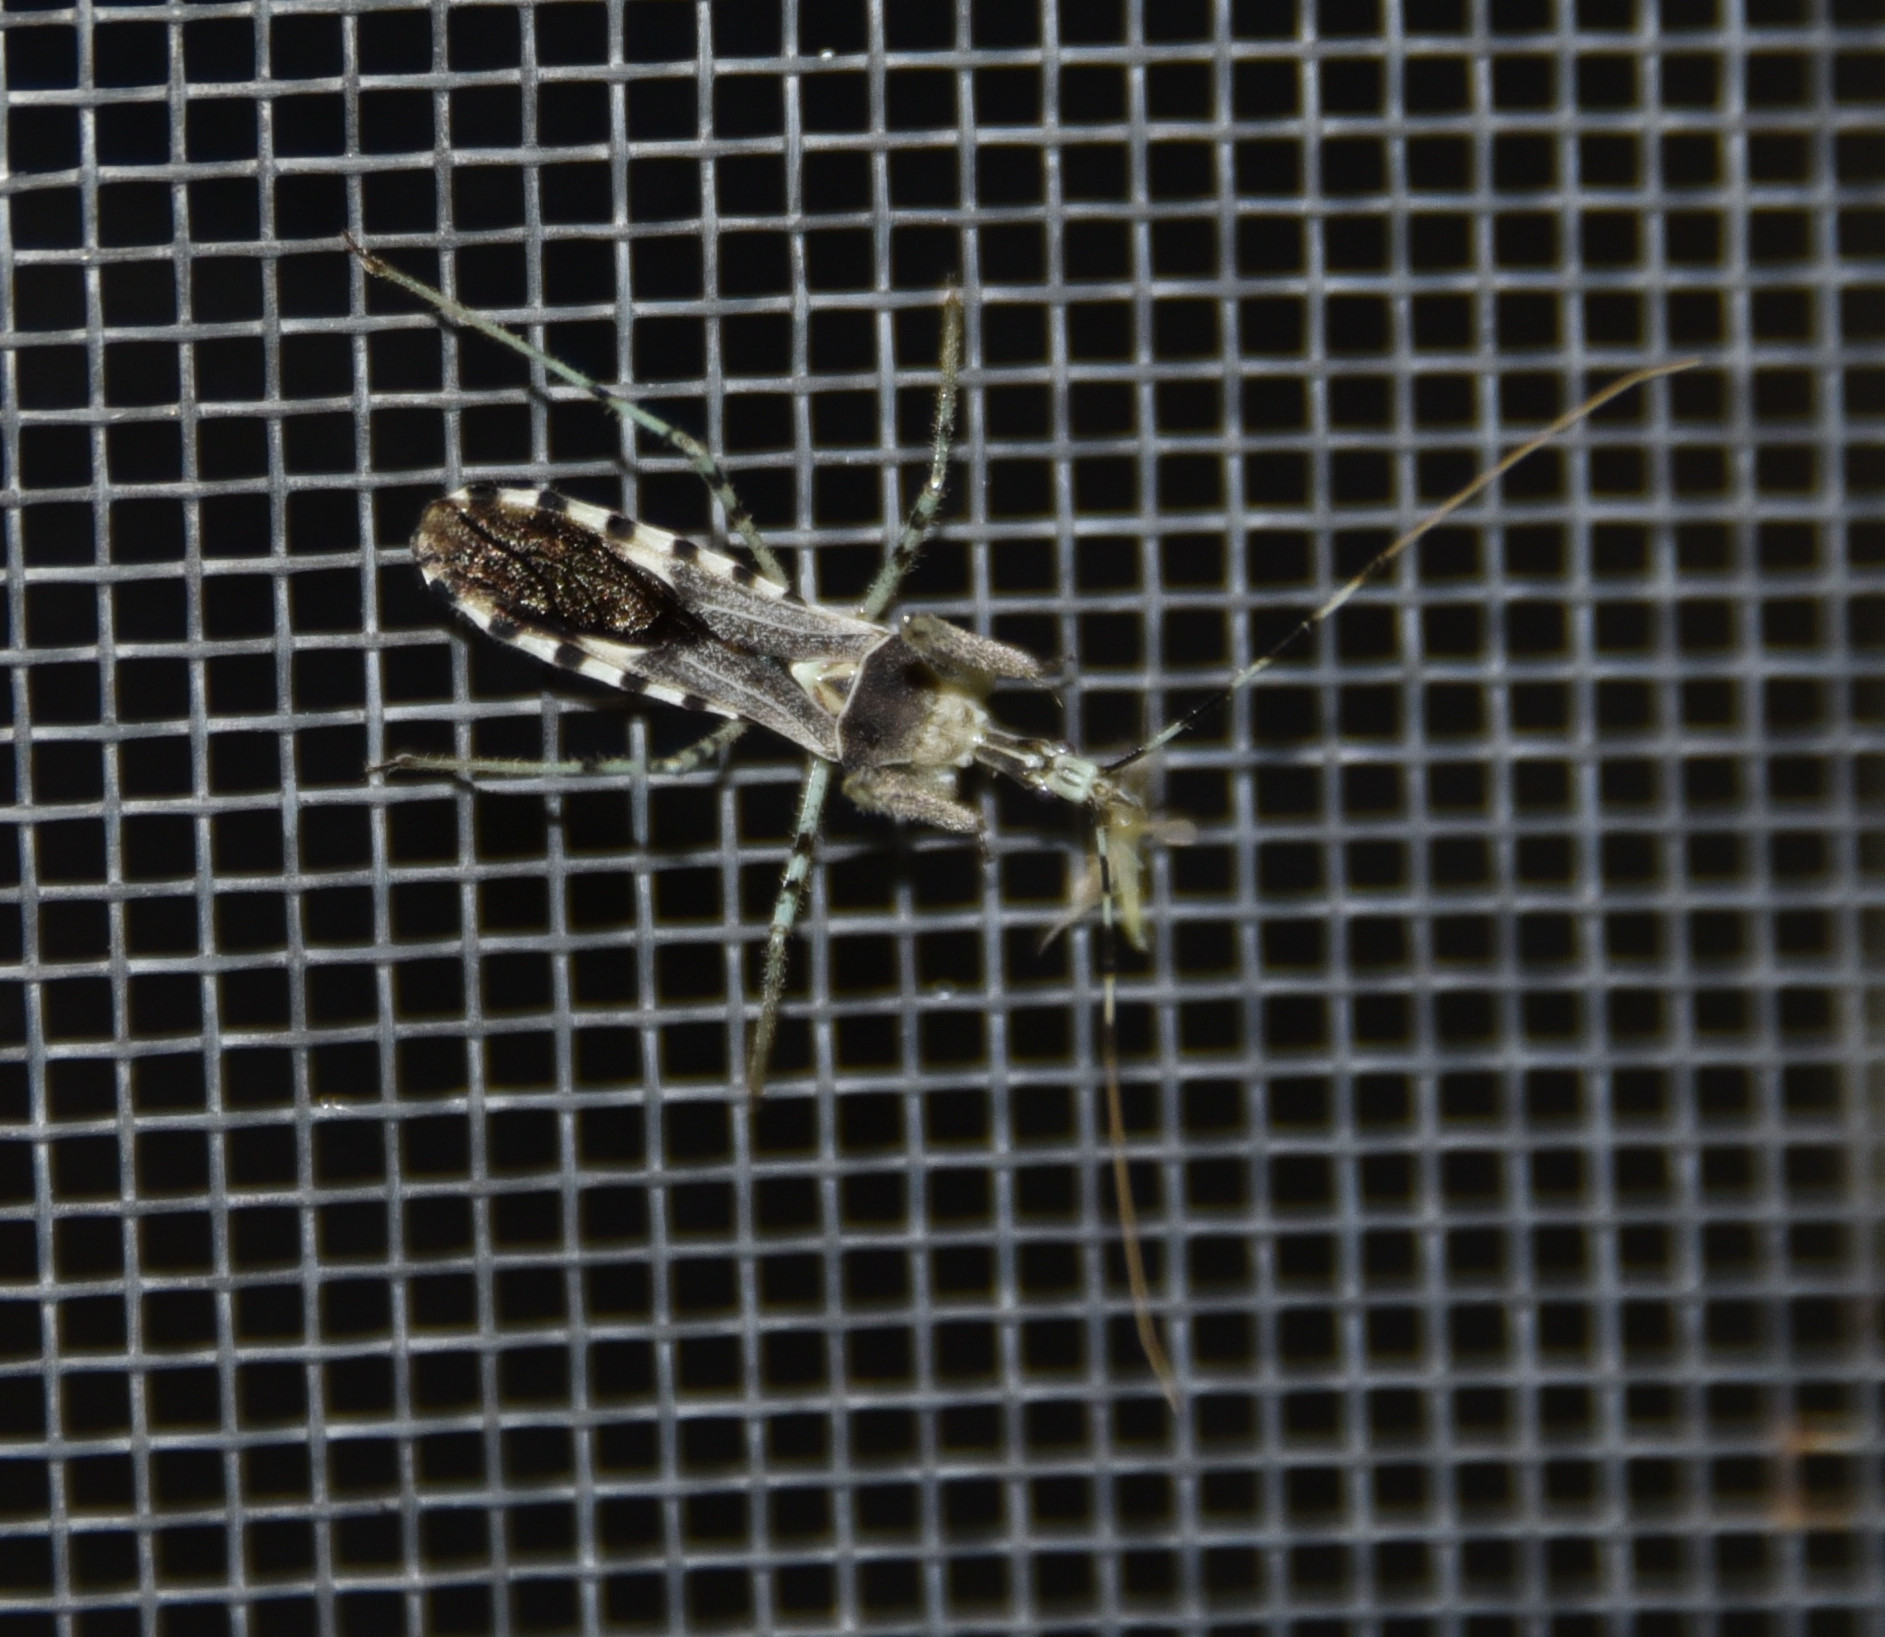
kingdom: Animalia
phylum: Arthropoda
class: Insecta
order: Hemiptera
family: Reduviidae
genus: Zelus
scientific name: Zelus tetracanthus
